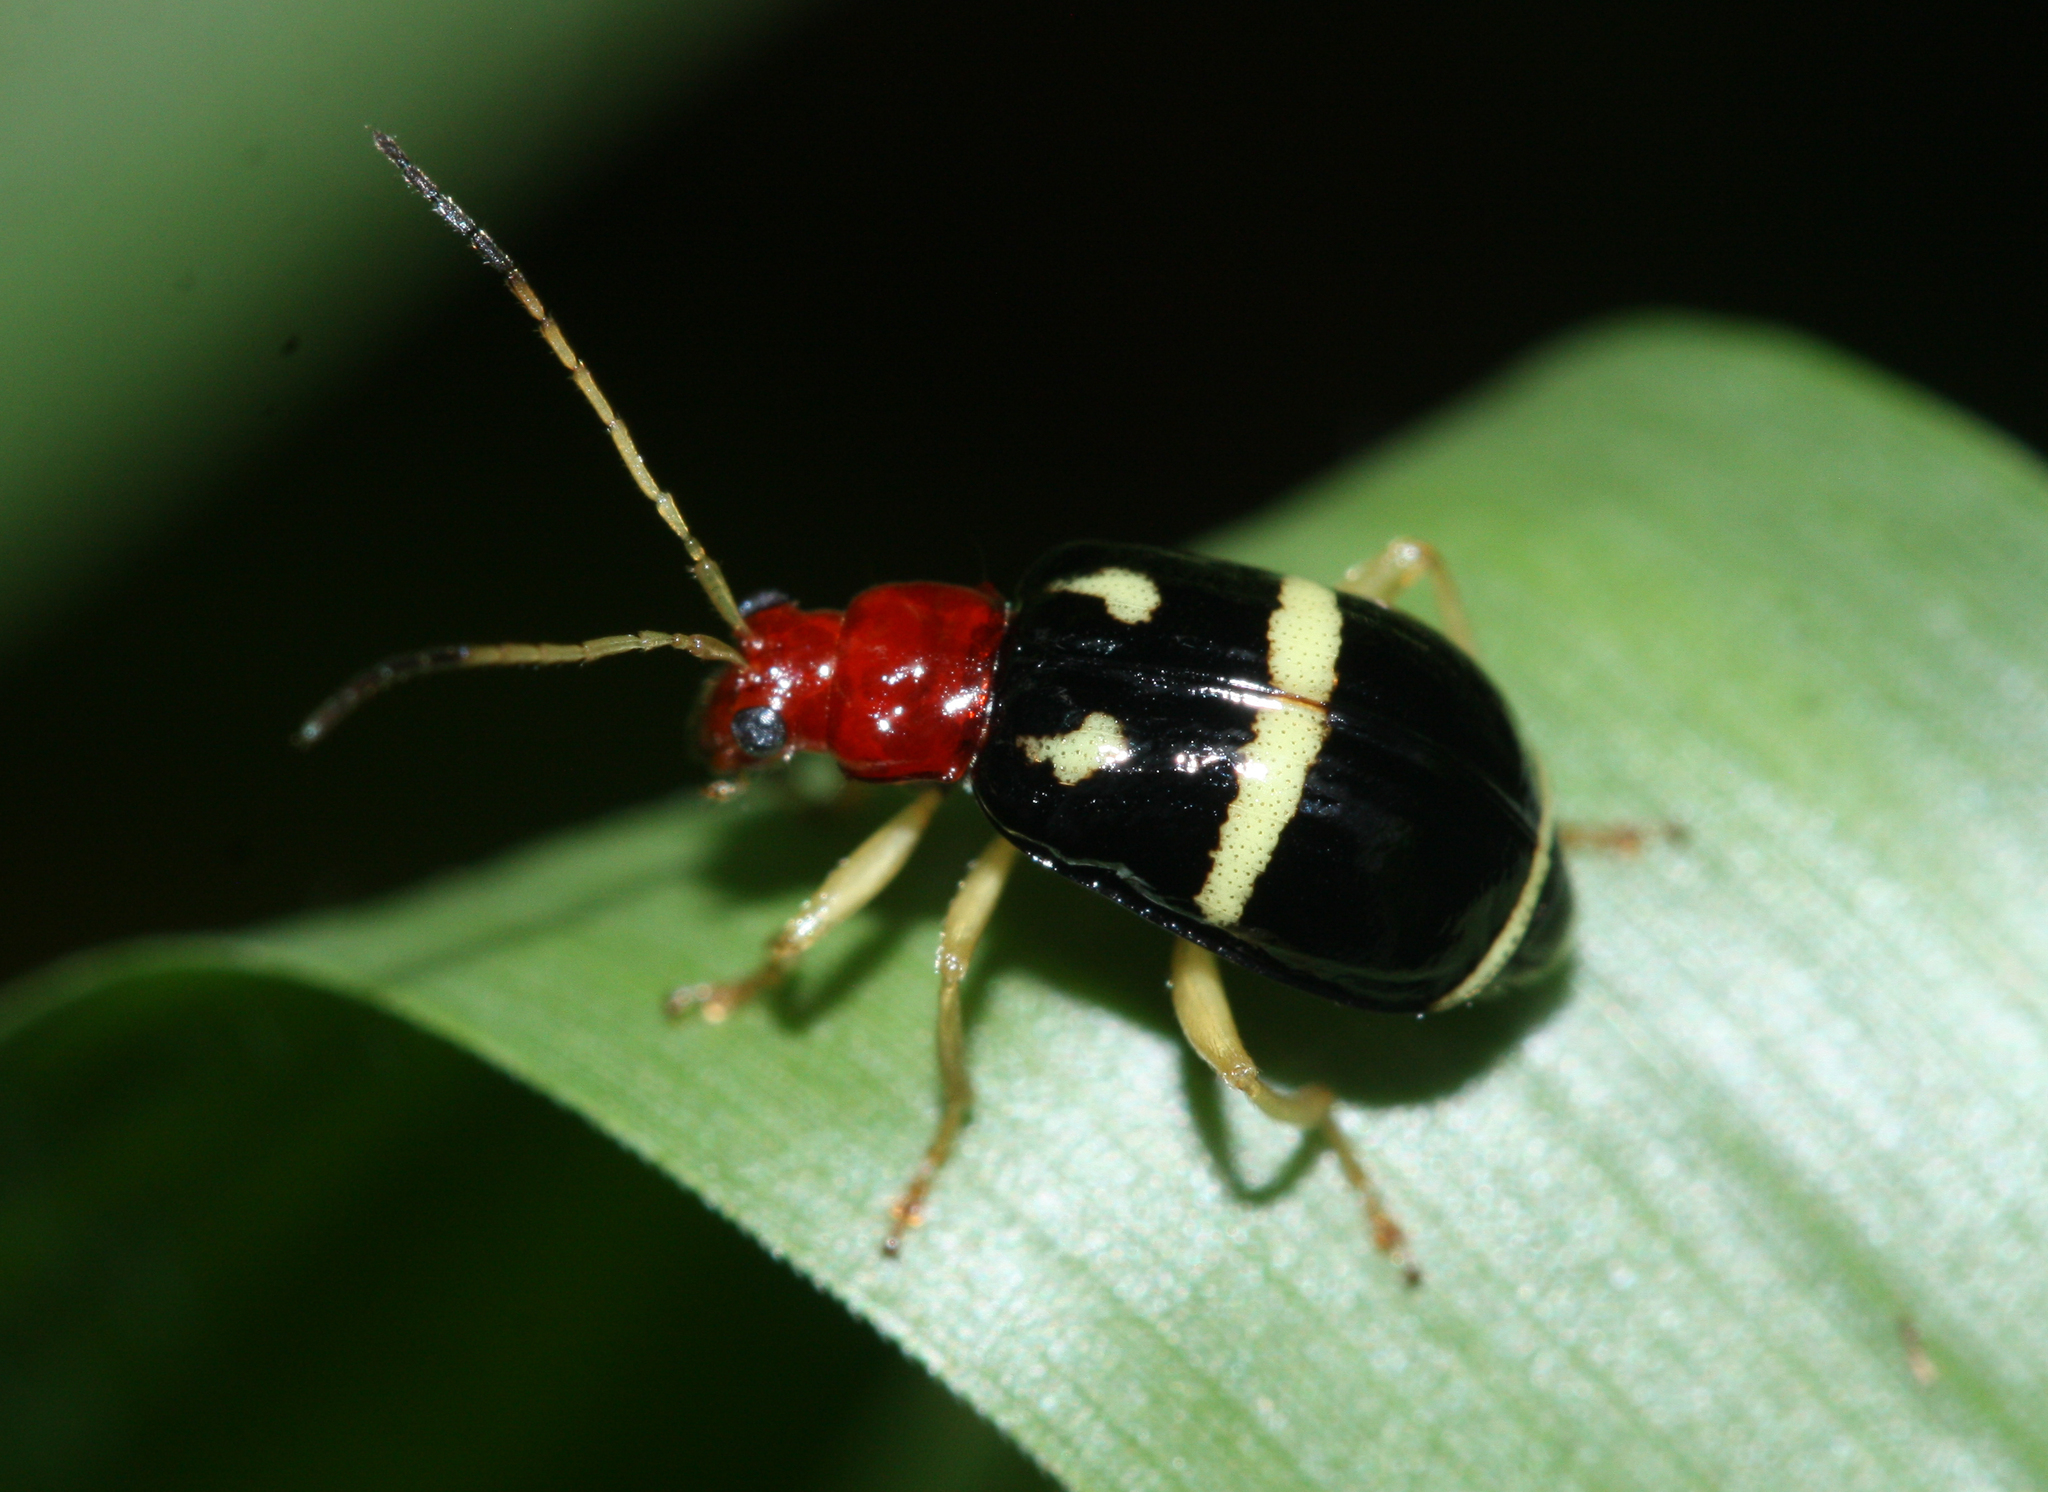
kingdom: Animalia
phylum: Arthropoda
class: Insecta
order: Coleoptera
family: Chrysomelidae
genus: Gynandrobrotica
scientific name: Gynandrobrotica
